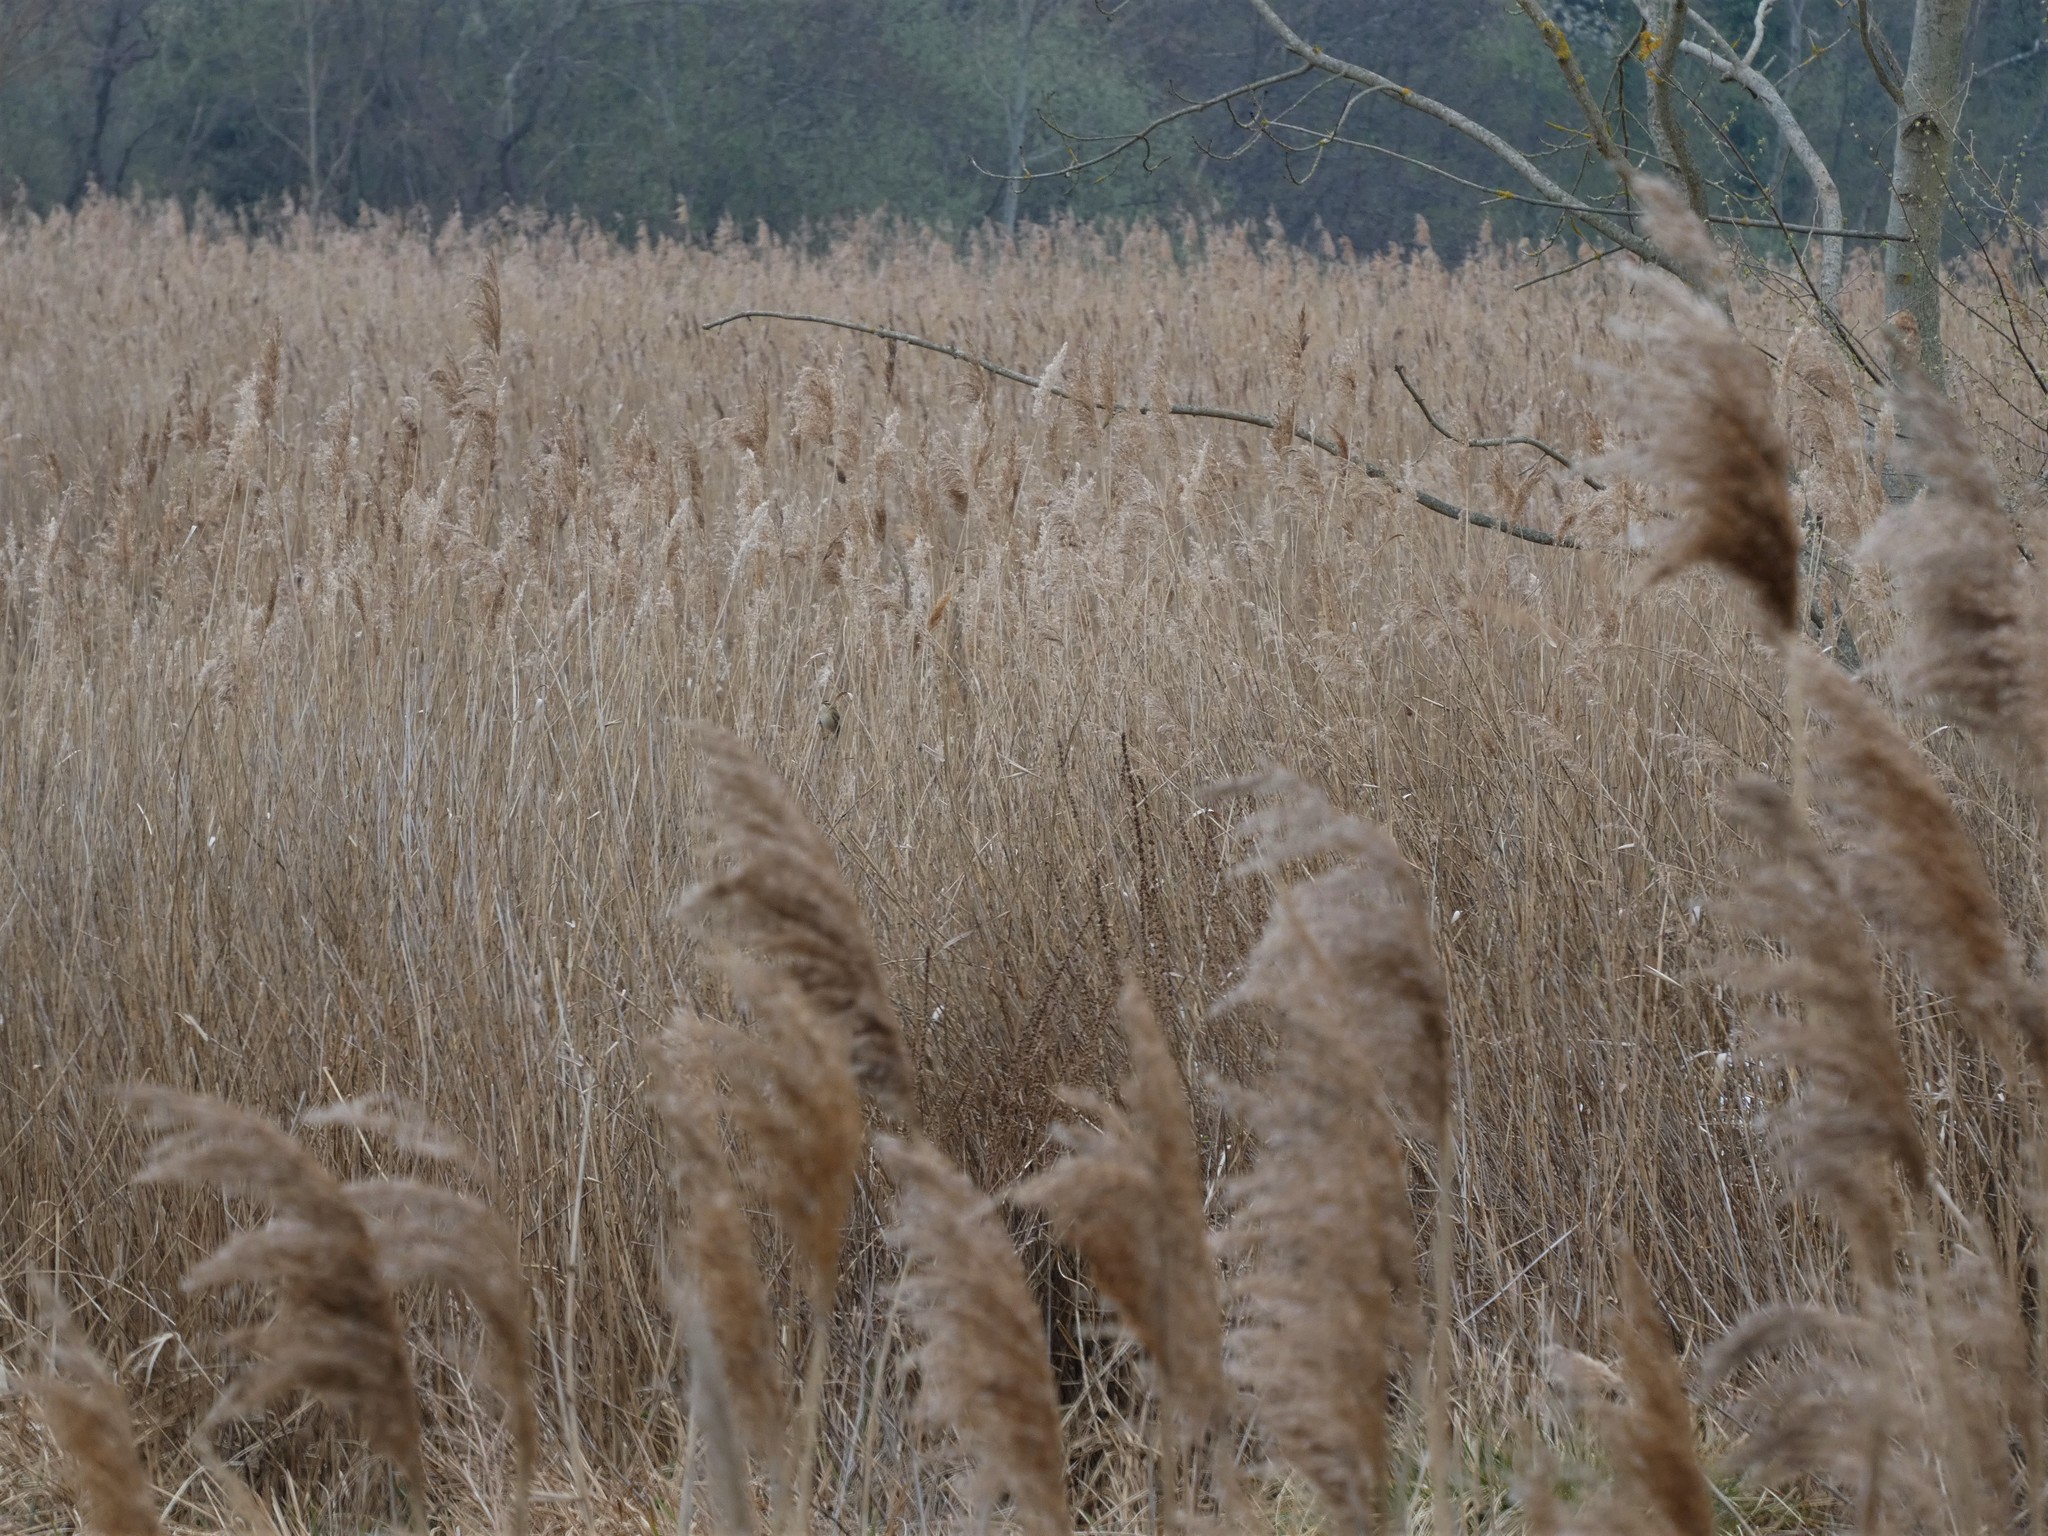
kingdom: Animalia
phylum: Chordata
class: Aves
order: Passeriformes
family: Acrocephalidae
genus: Acrocephalus
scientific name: Acrocephalus schoenobaenus
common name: Sedge warbler
